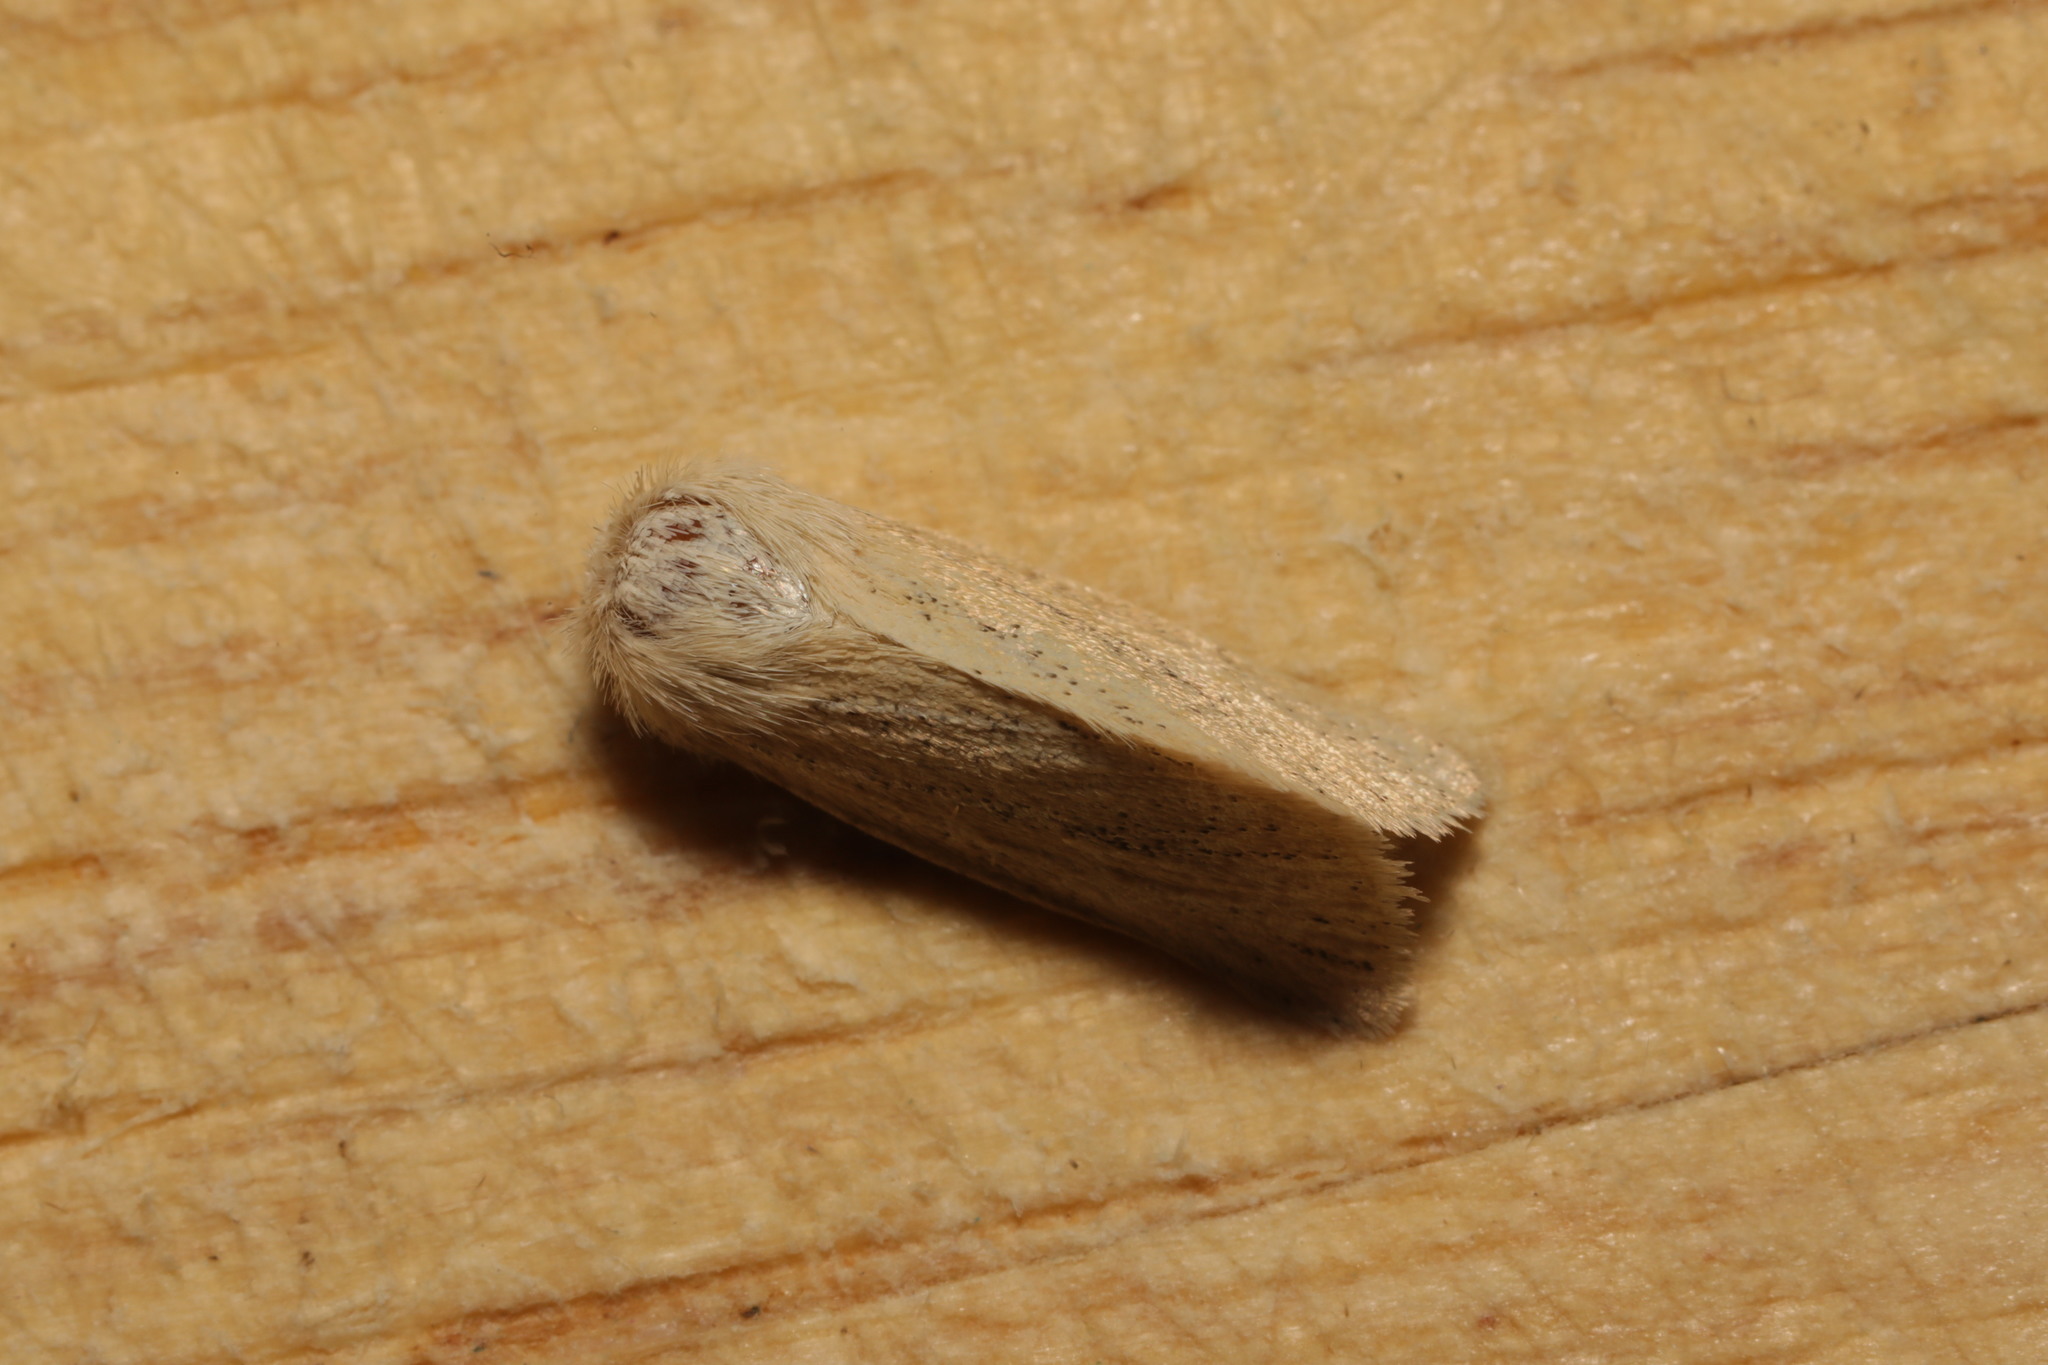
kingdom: Animalia
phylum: Arthropoda
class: Insecta
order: Lepidoptera
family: Noctuidae
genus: Photedes
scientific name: Photedes
